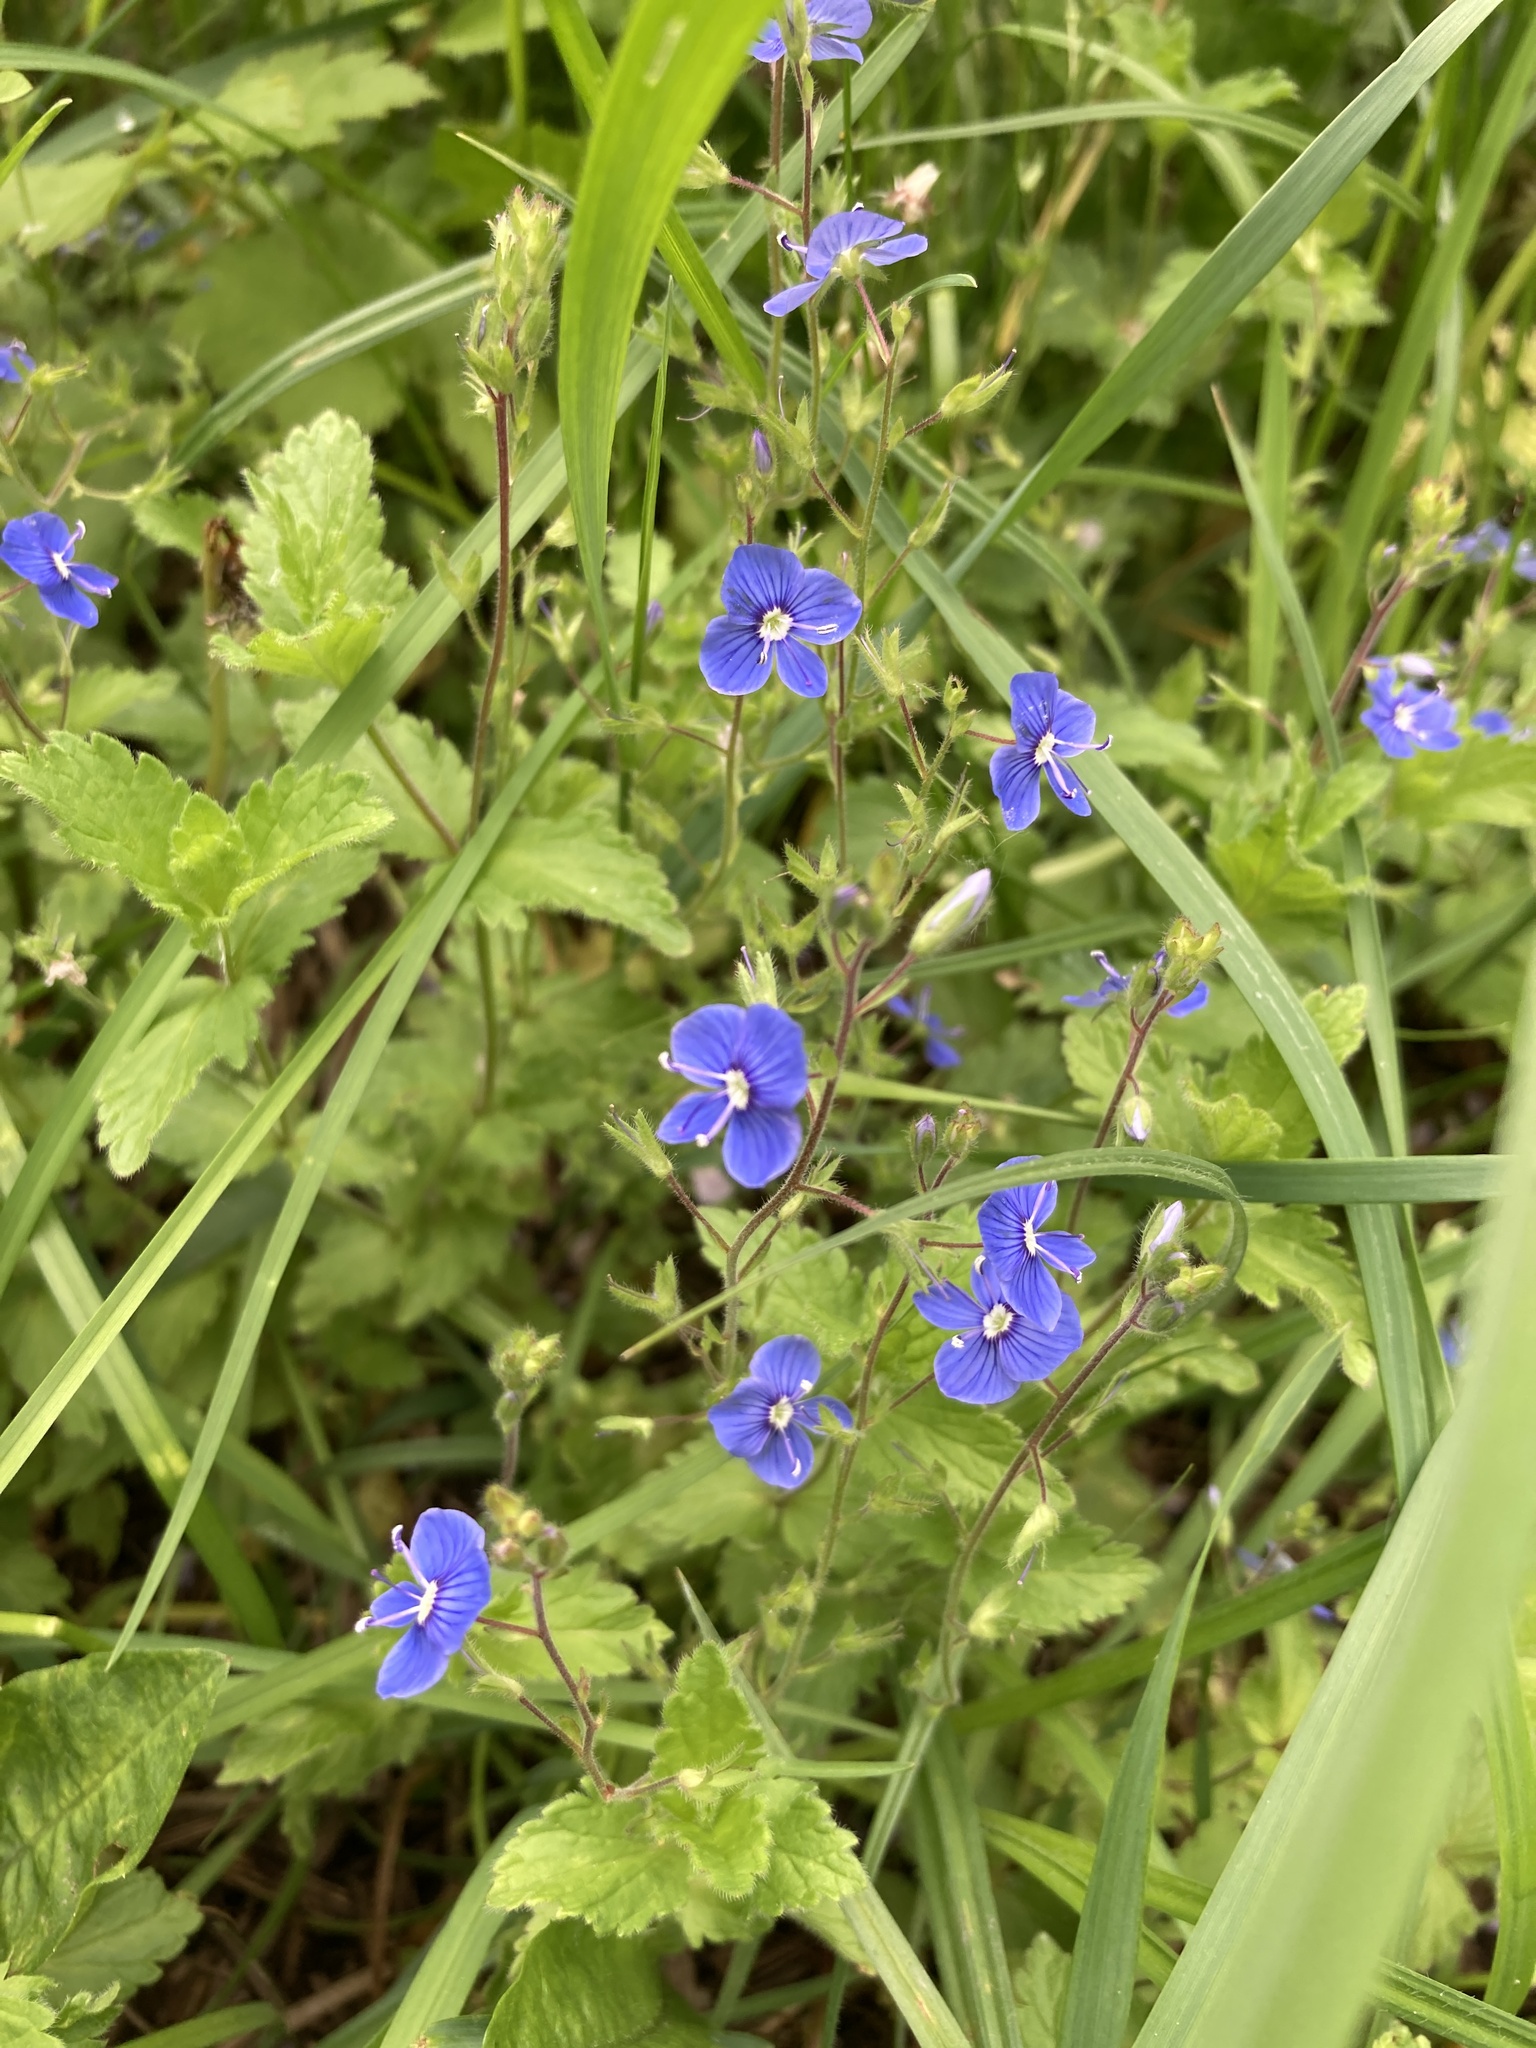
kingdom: Plantae
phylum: Tracheophyta
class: Magnoliopsida
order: Lamiales
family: Plantaginaceae
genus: Veronica
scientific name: Veronica chamaedrys
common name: Germander speedwell
